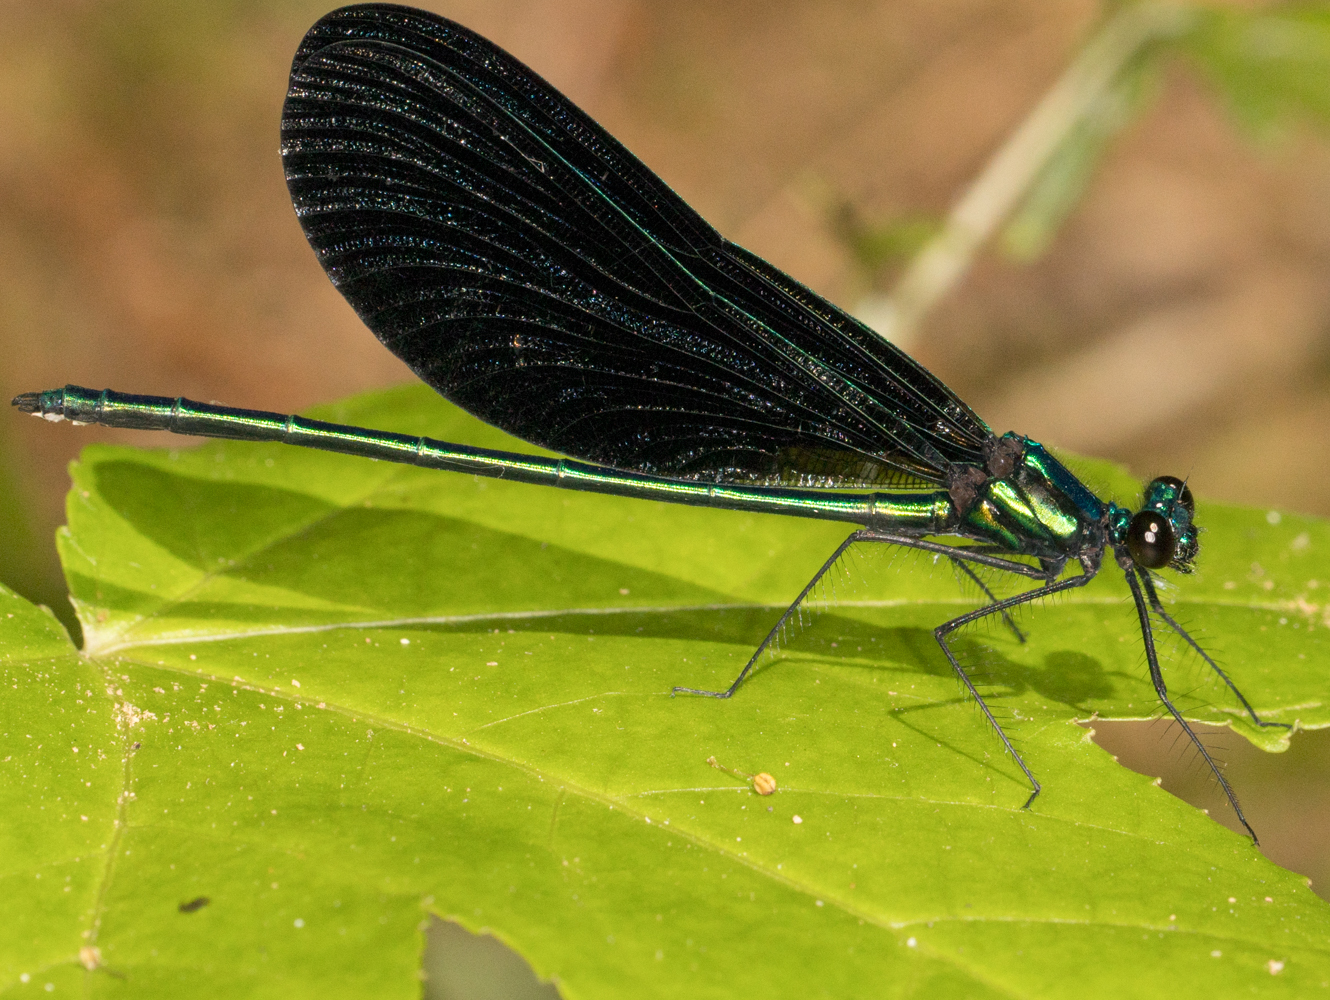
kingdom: Animalia
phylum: Arthropoda
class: Insecta
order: Odonata
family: Calopterygidae
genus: Calopteryx
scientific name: Calopteryx maculata
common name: Ebony jewelwing
